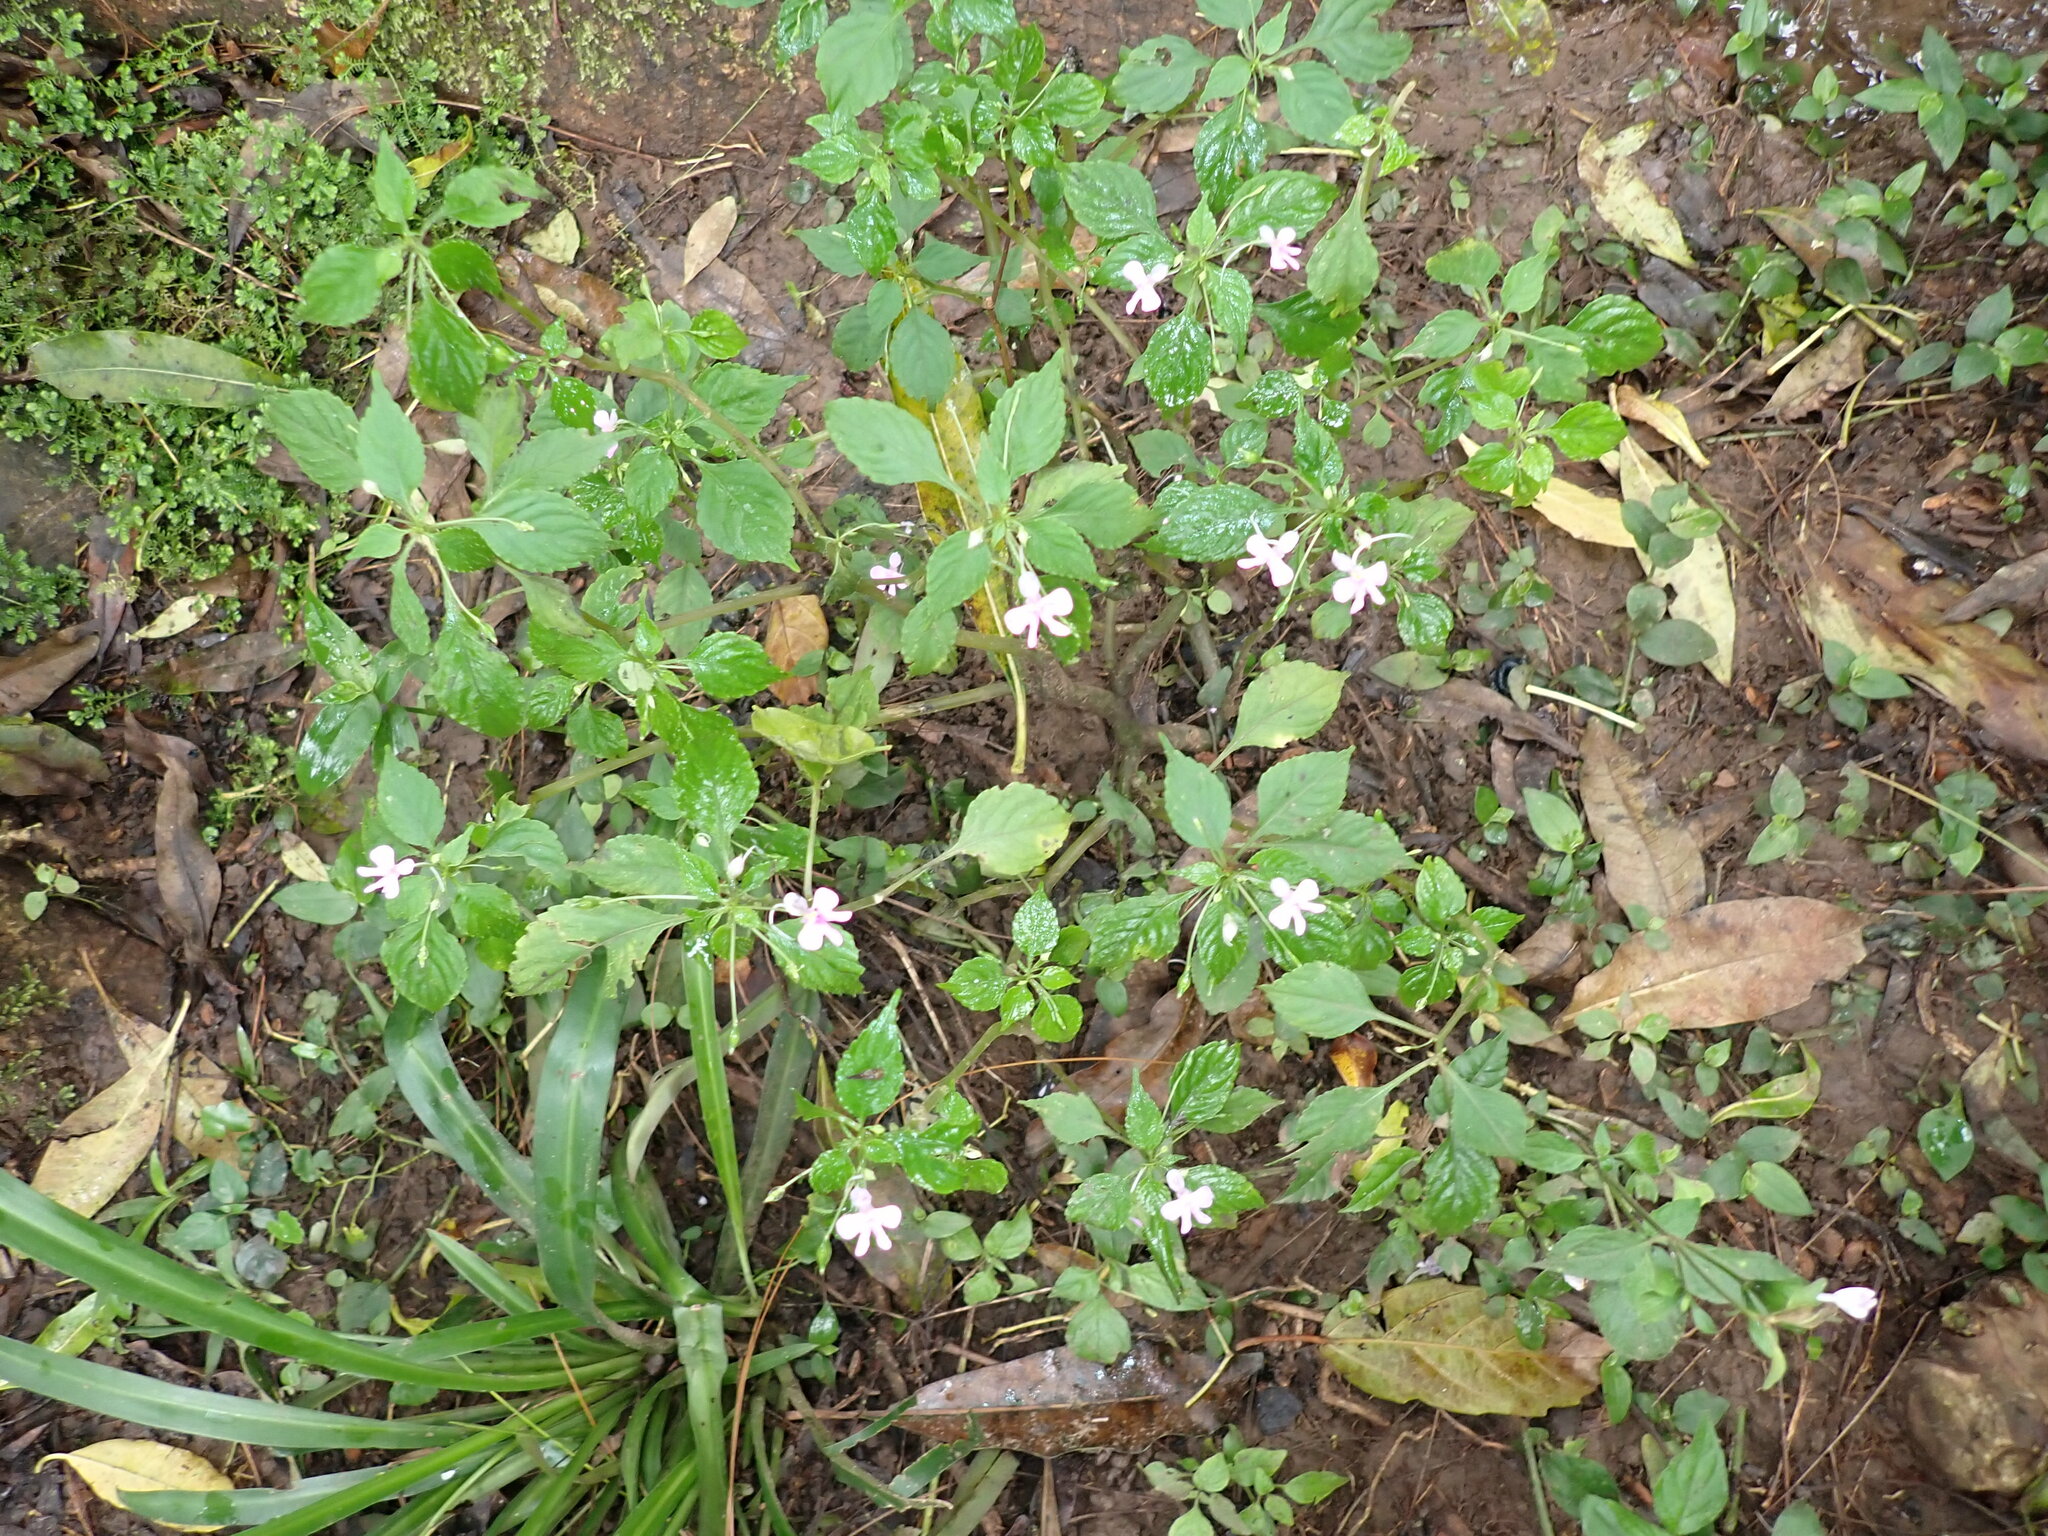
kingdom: Plantae
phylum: Tracheophyta
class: Magnoliopsida
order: Ericales
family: Balsaminaceae
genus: Impatiens
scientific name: Impatiens hochstetteri
